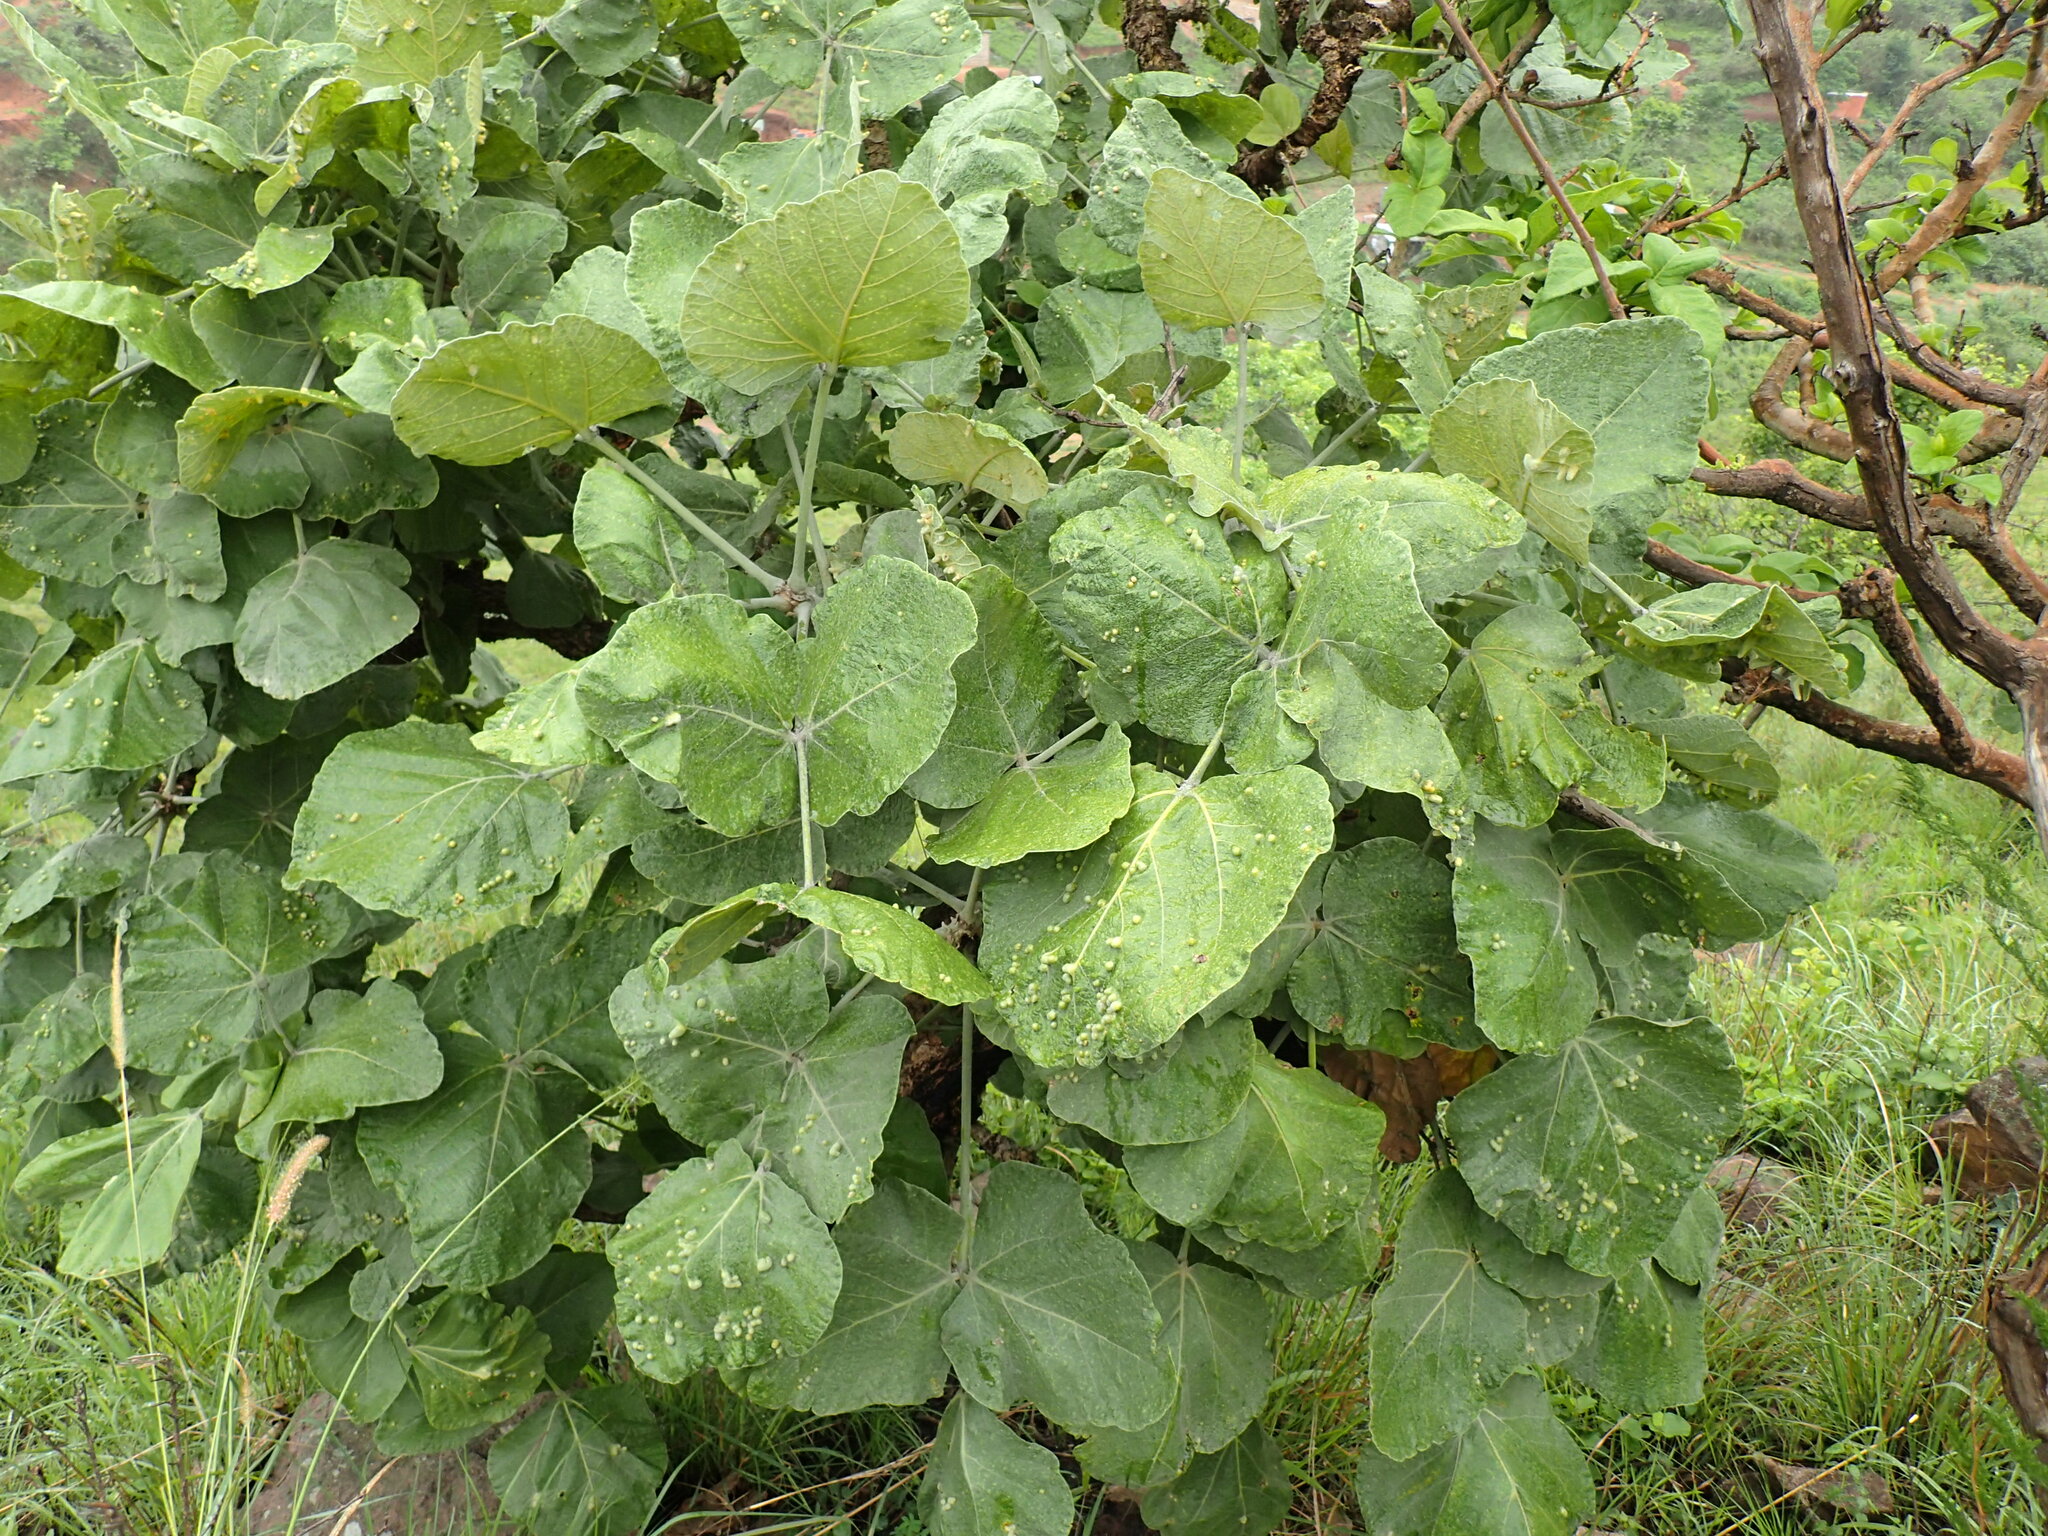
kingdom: Plantae
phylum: Tracheophyta
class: Magnoliopsida
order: Fabales
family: Fabaceae
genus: Erythrina
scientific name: Erythrina latissima
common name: Broad-leaved coral tree
